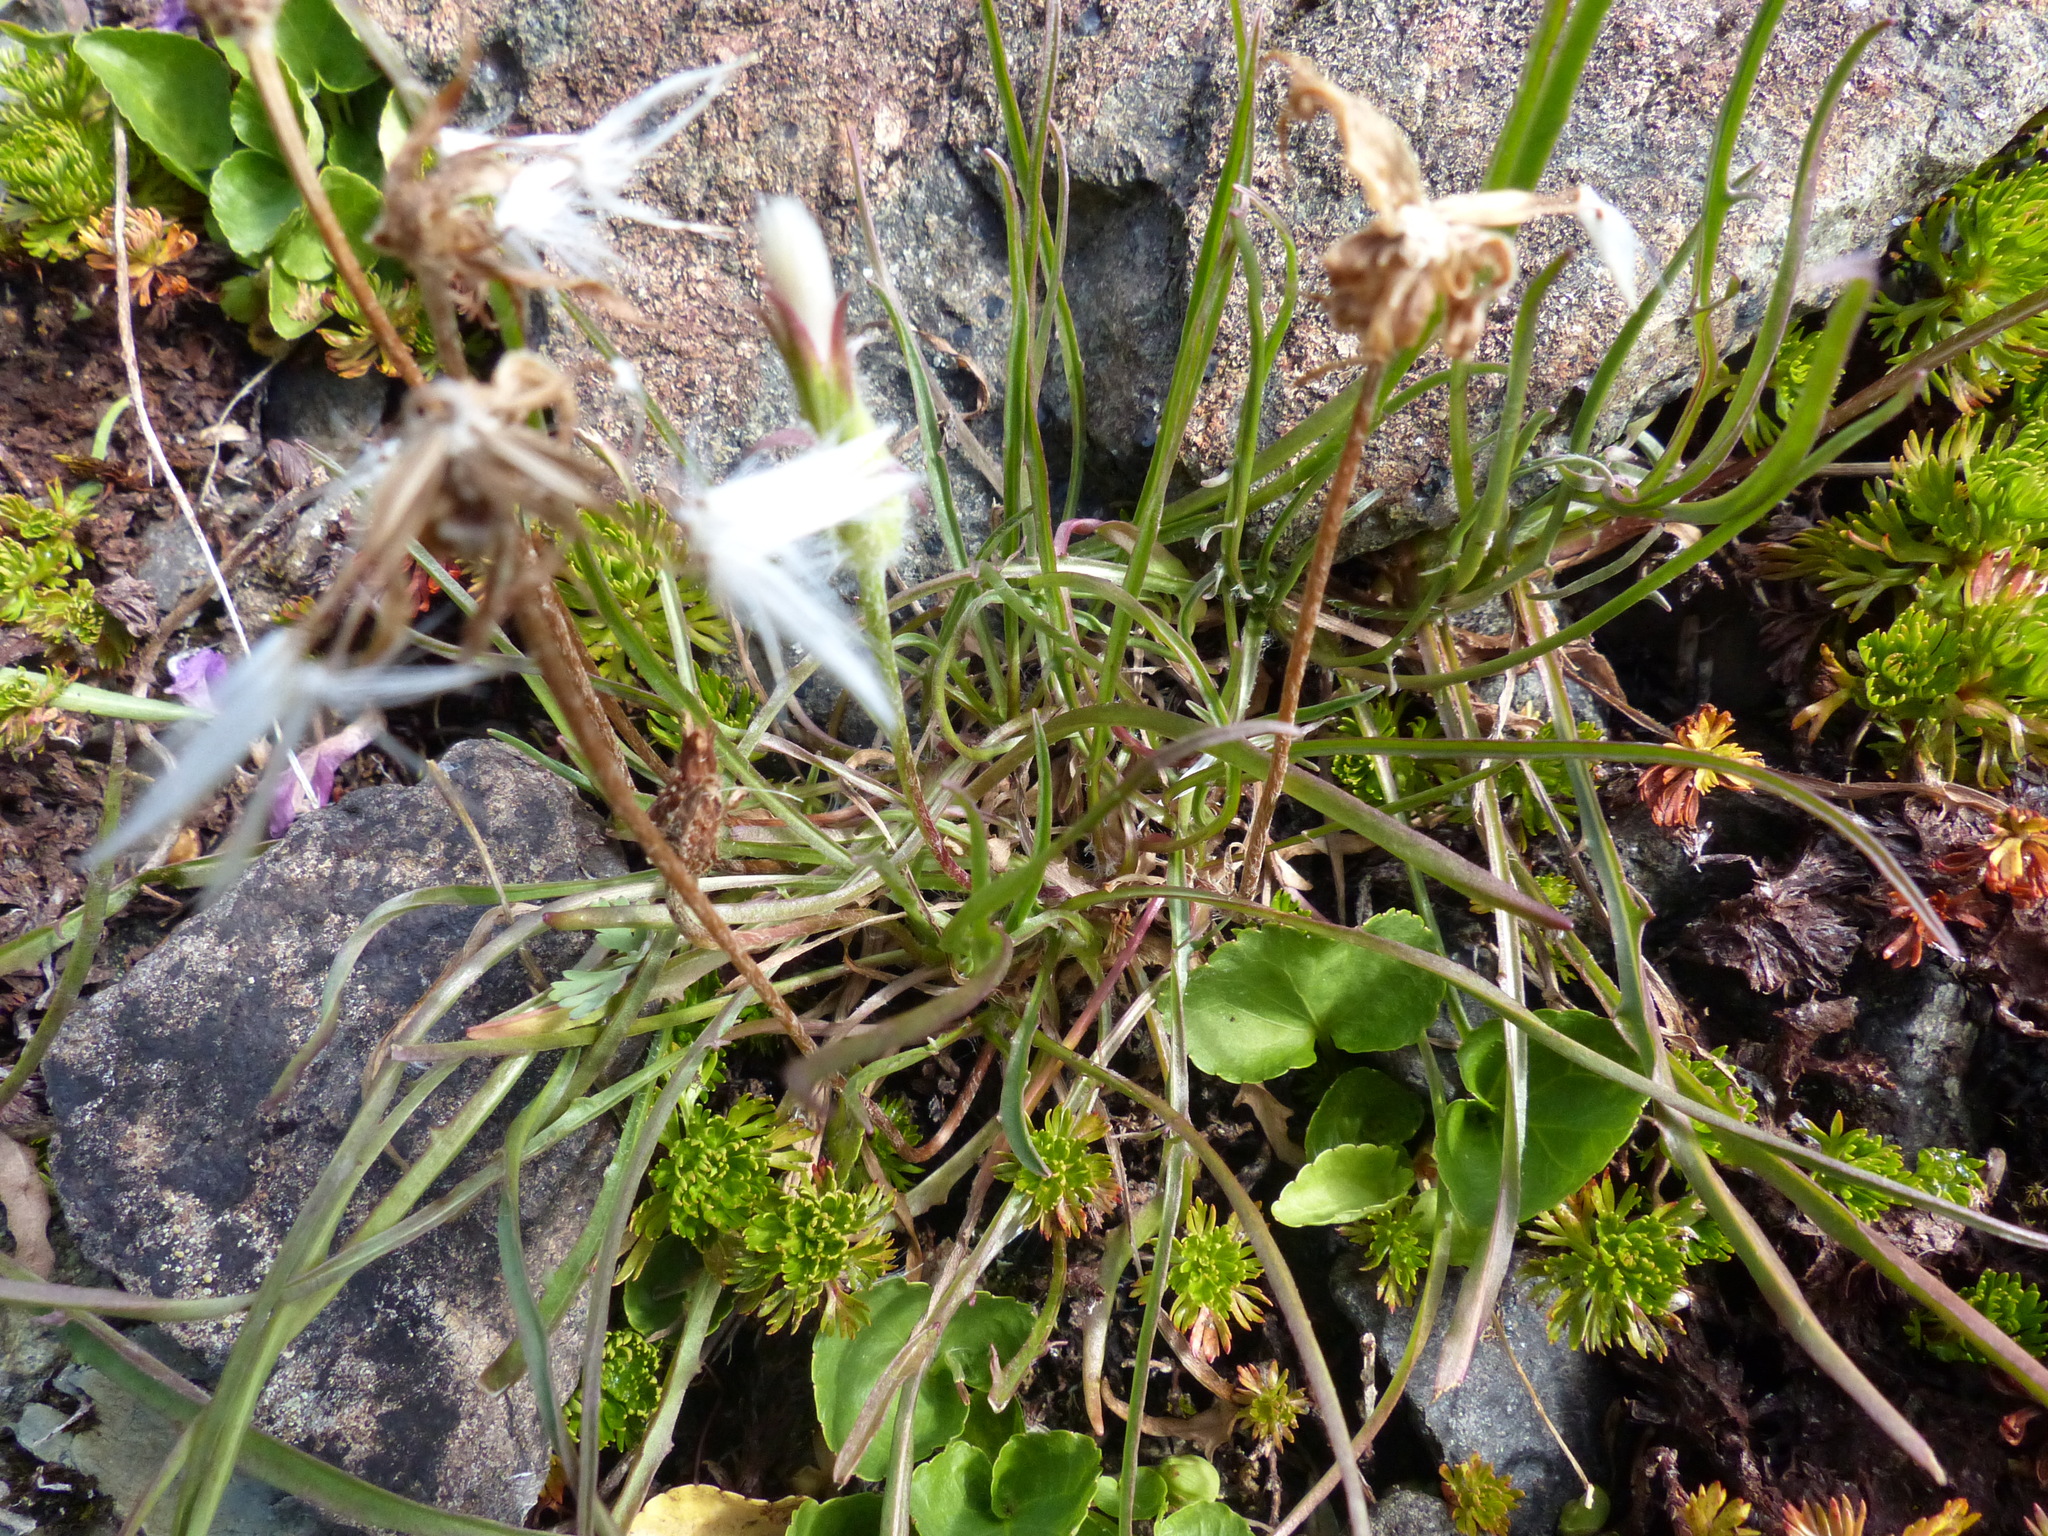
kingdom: Plantae
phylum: Tracheophyta
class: Magnoliopsida
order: Asterales
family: Asteraceae
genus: Agoseris
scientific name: Agoseris aurantiaca
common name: Mountain agoseris
